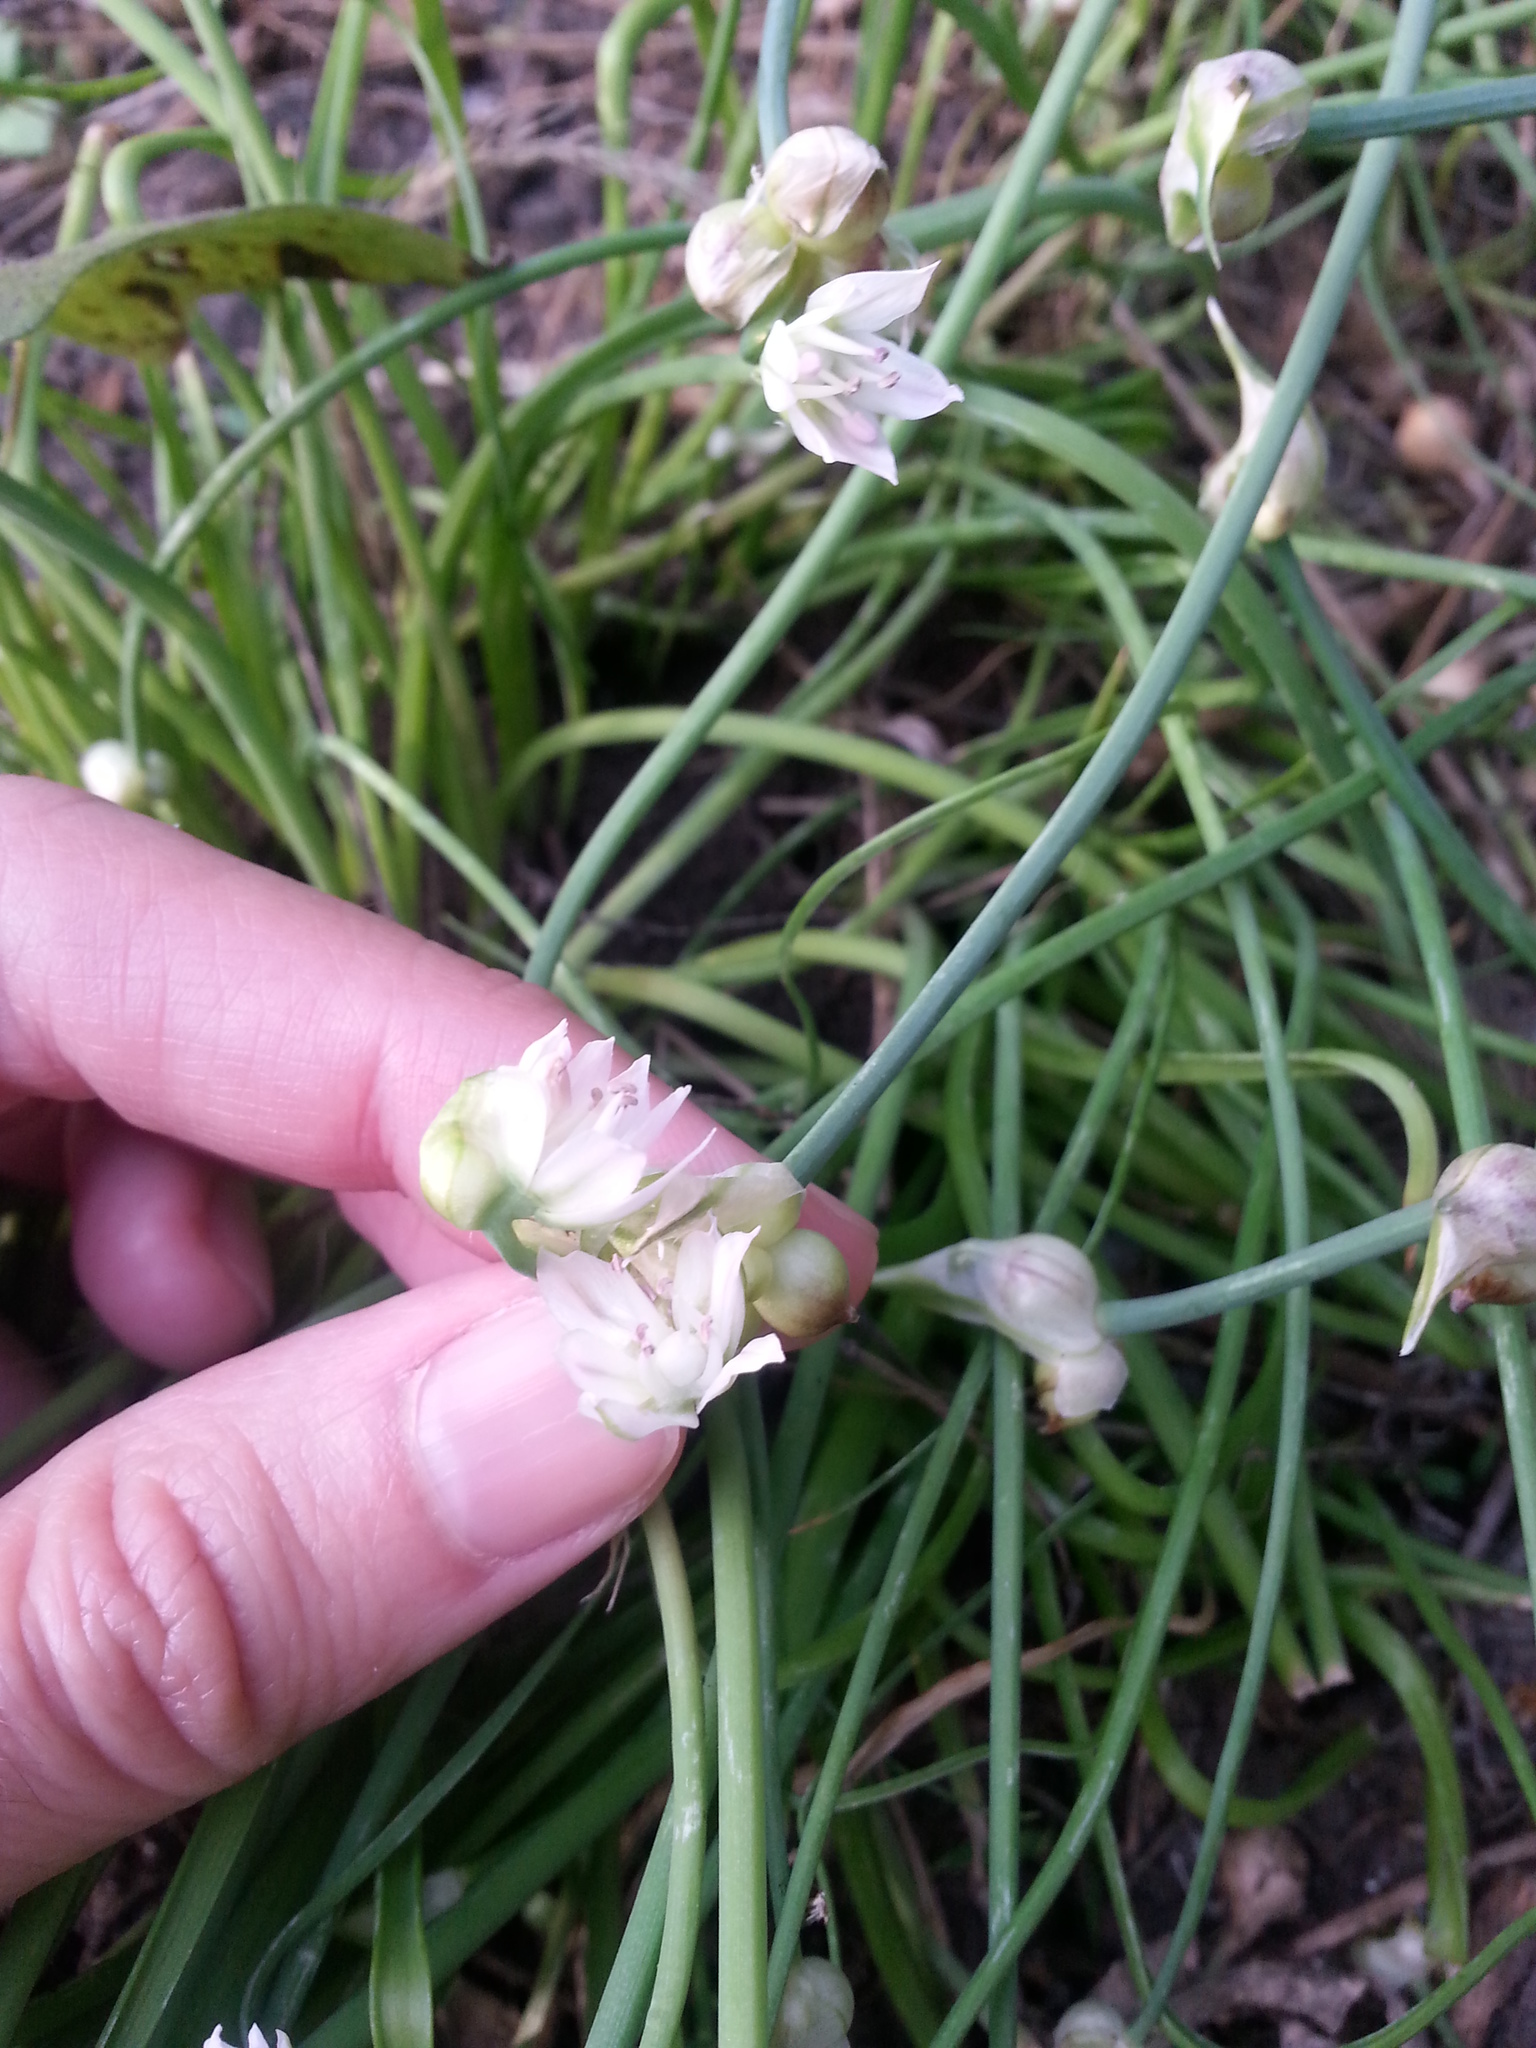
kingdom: Plantae
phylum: Tracheophyta
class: Liliopsida
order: Asparagales
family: Amaryllidaceae
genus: Allium
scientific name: Allium canadense
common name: Meadow garlic
